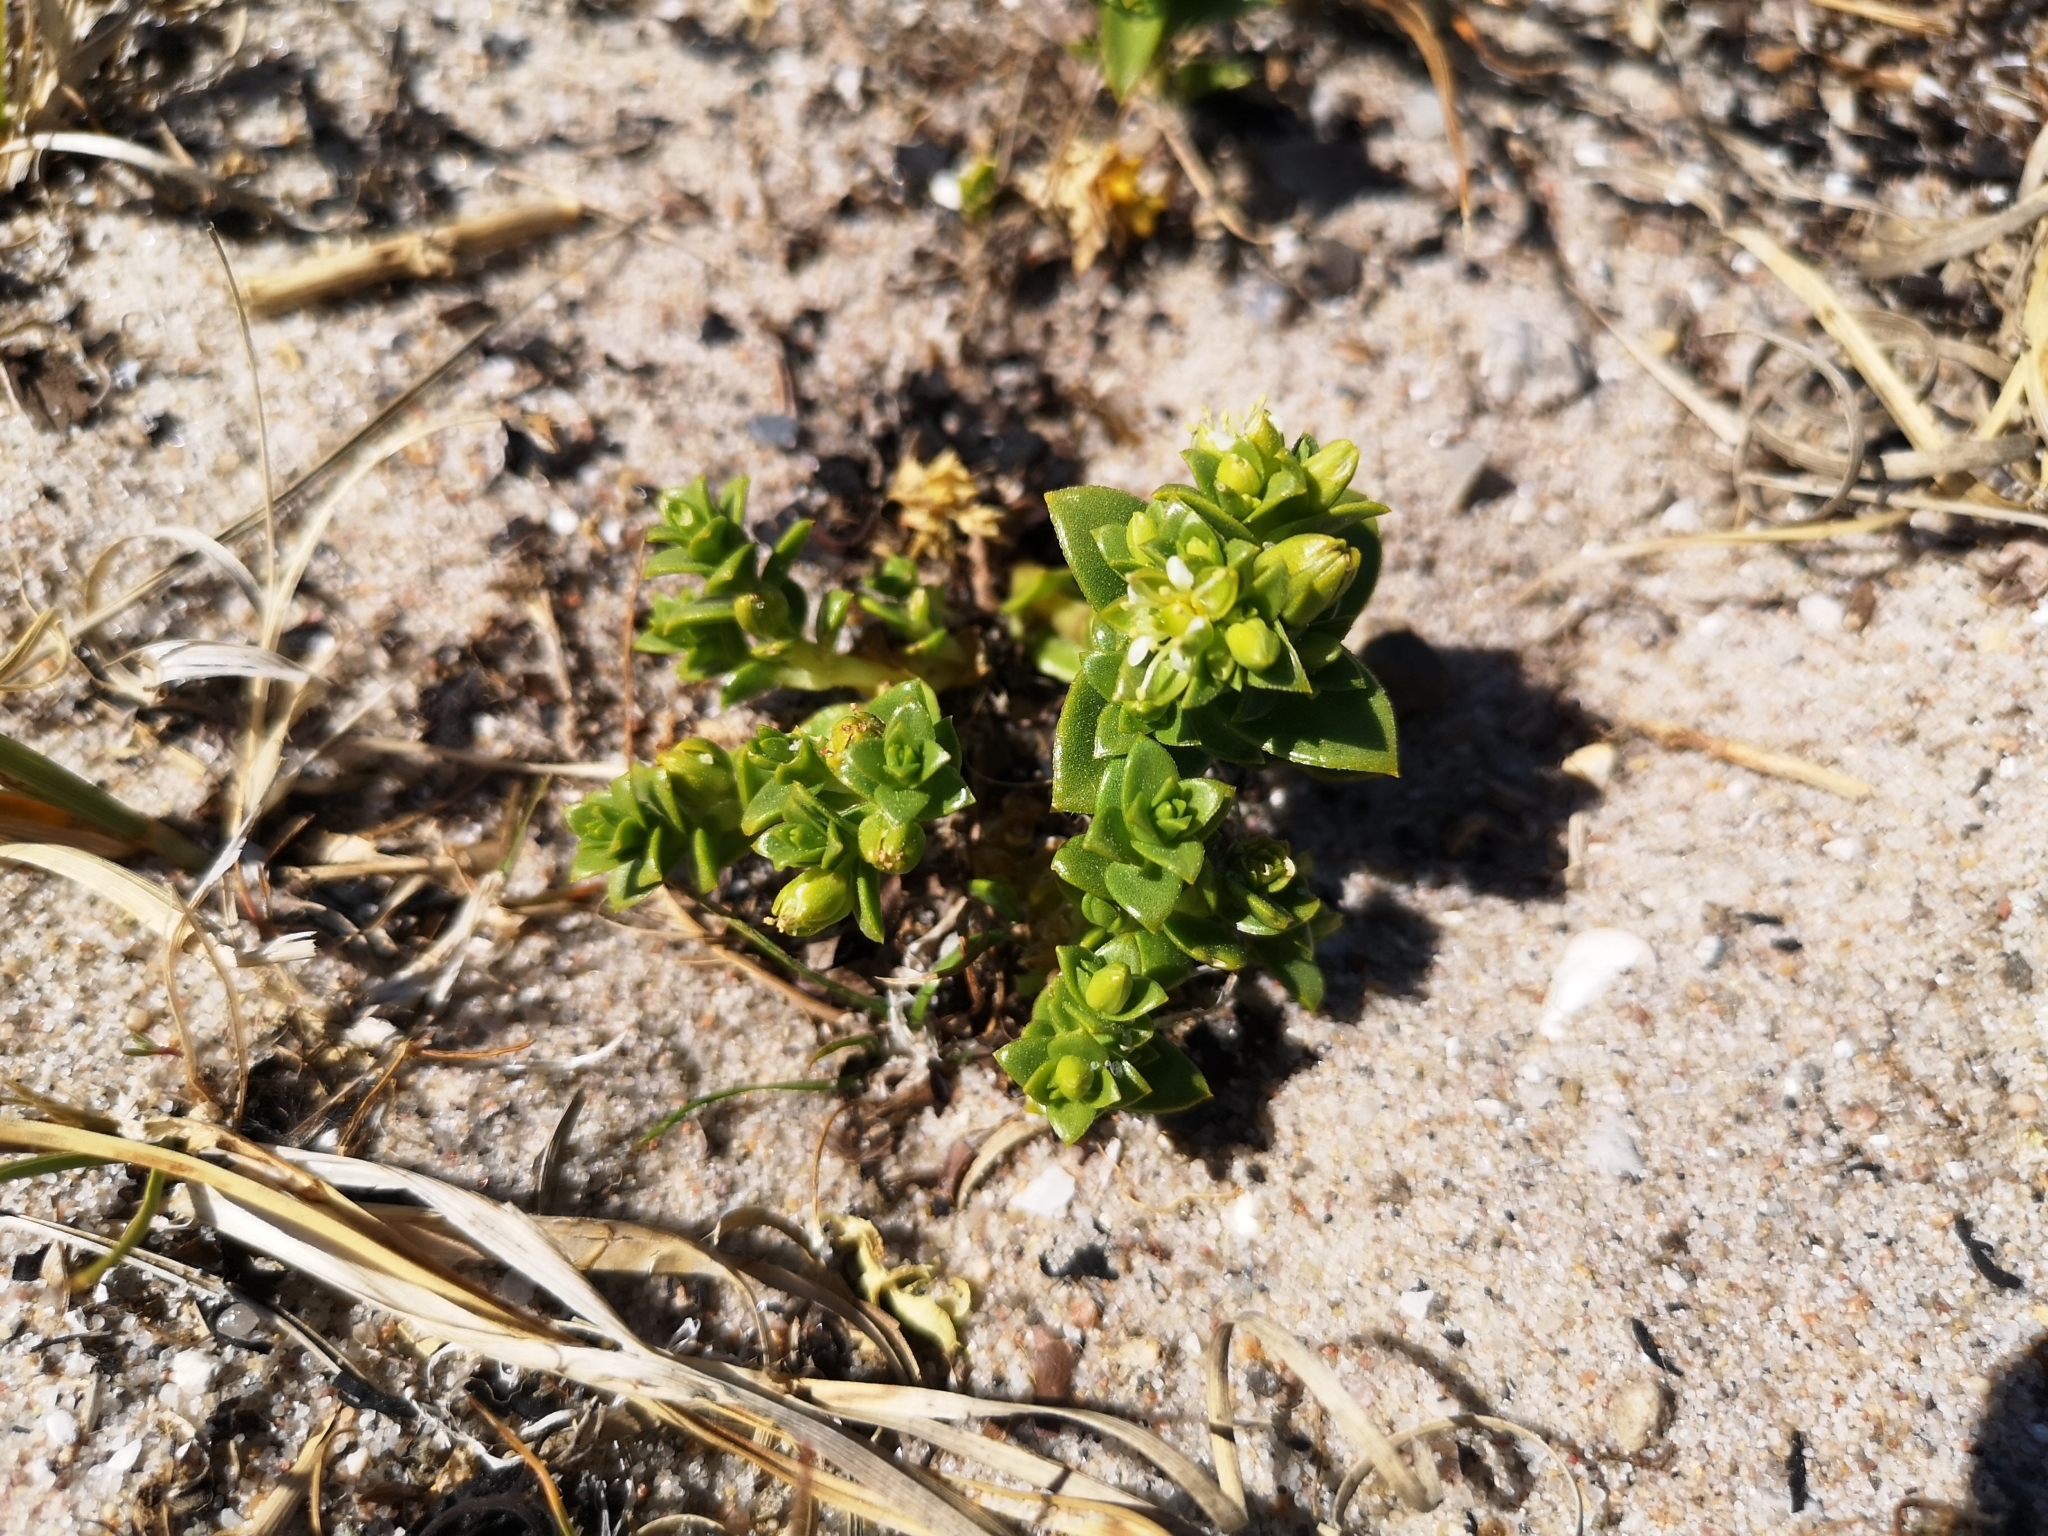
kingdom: Plantae
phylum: Tracheophyta
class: Magnoliopsida
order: Caryophyllales
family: Caryophyllaceae
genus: Honckenya
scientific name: Honckenya peploides
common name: Sea sandwort
